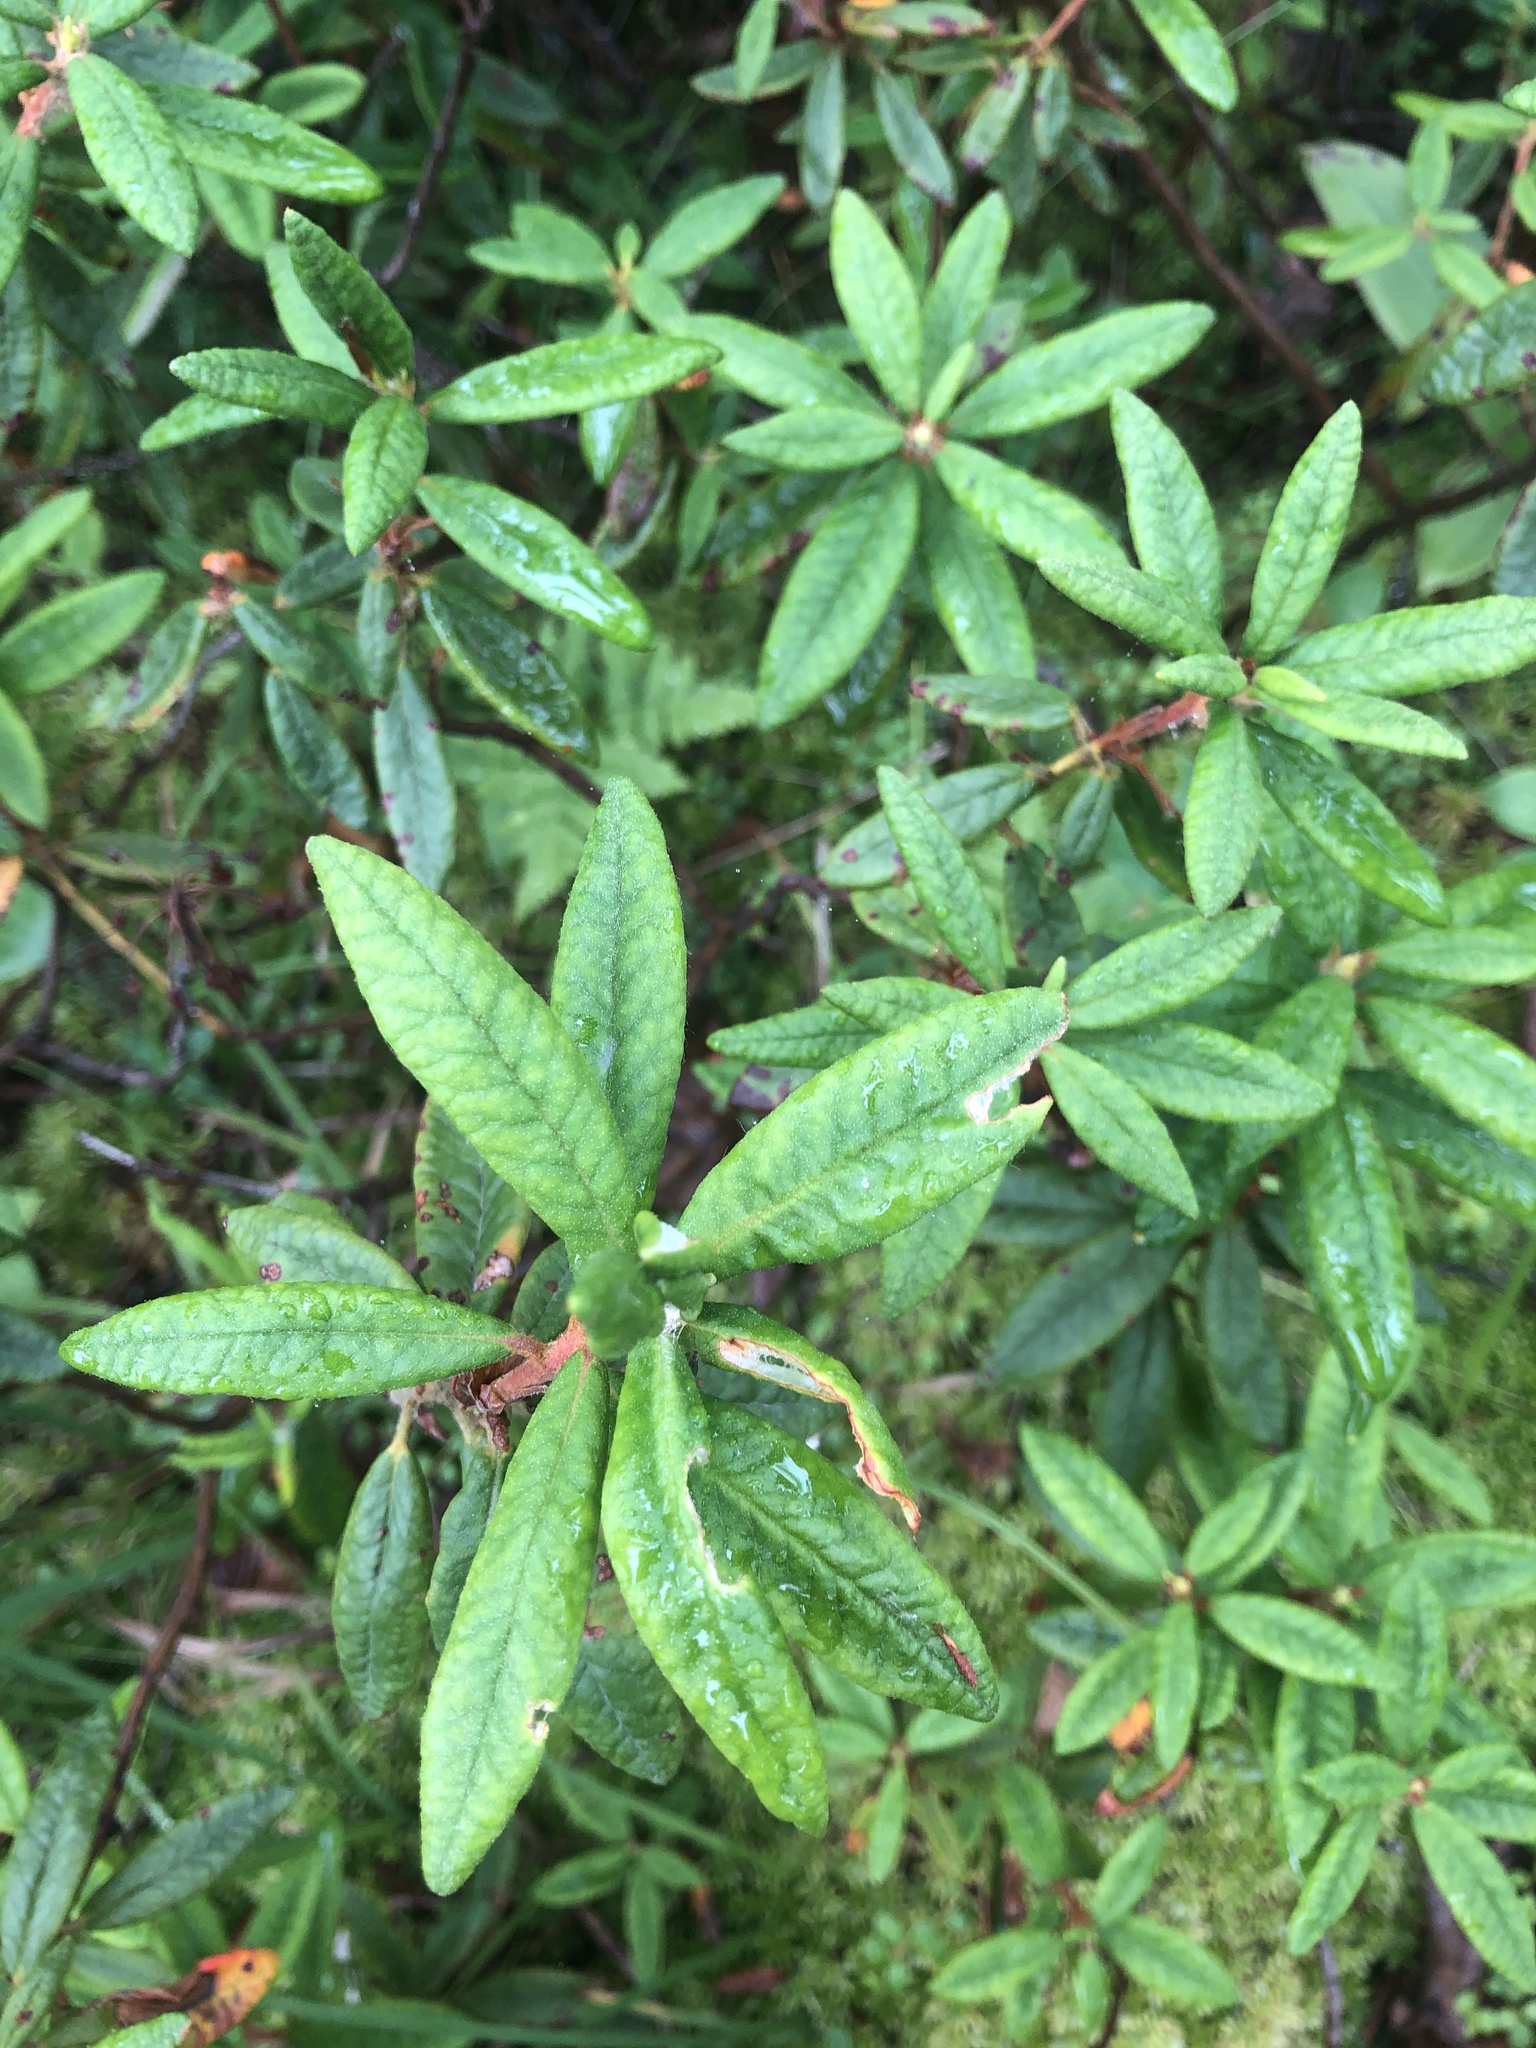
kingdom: Plantae
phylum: Tracheophyta
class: Magnoliopsida
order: Ericales
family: Ericaceae
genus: Rhododendron
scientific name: Rhododendron groenlandicum
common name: Bog labrador tea
